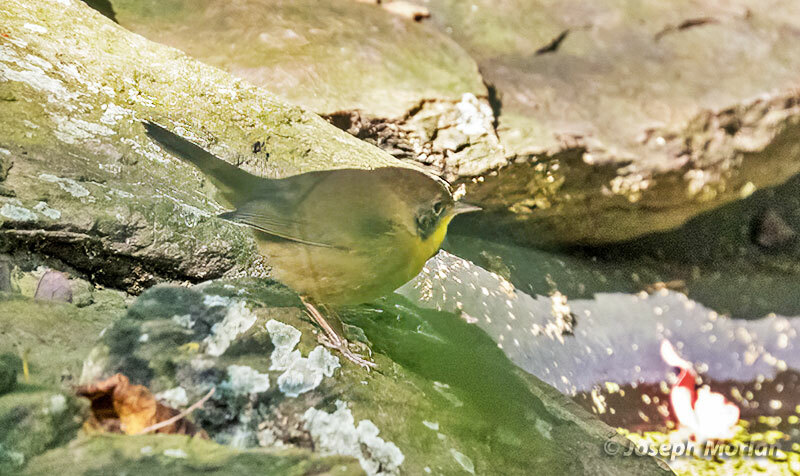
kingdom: Animalia
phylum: Chordata
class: Aves
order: Passeriformes
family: Parulidae
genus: Geothlypis
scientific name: Geothlypis trichas
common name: Common yellowthroat
